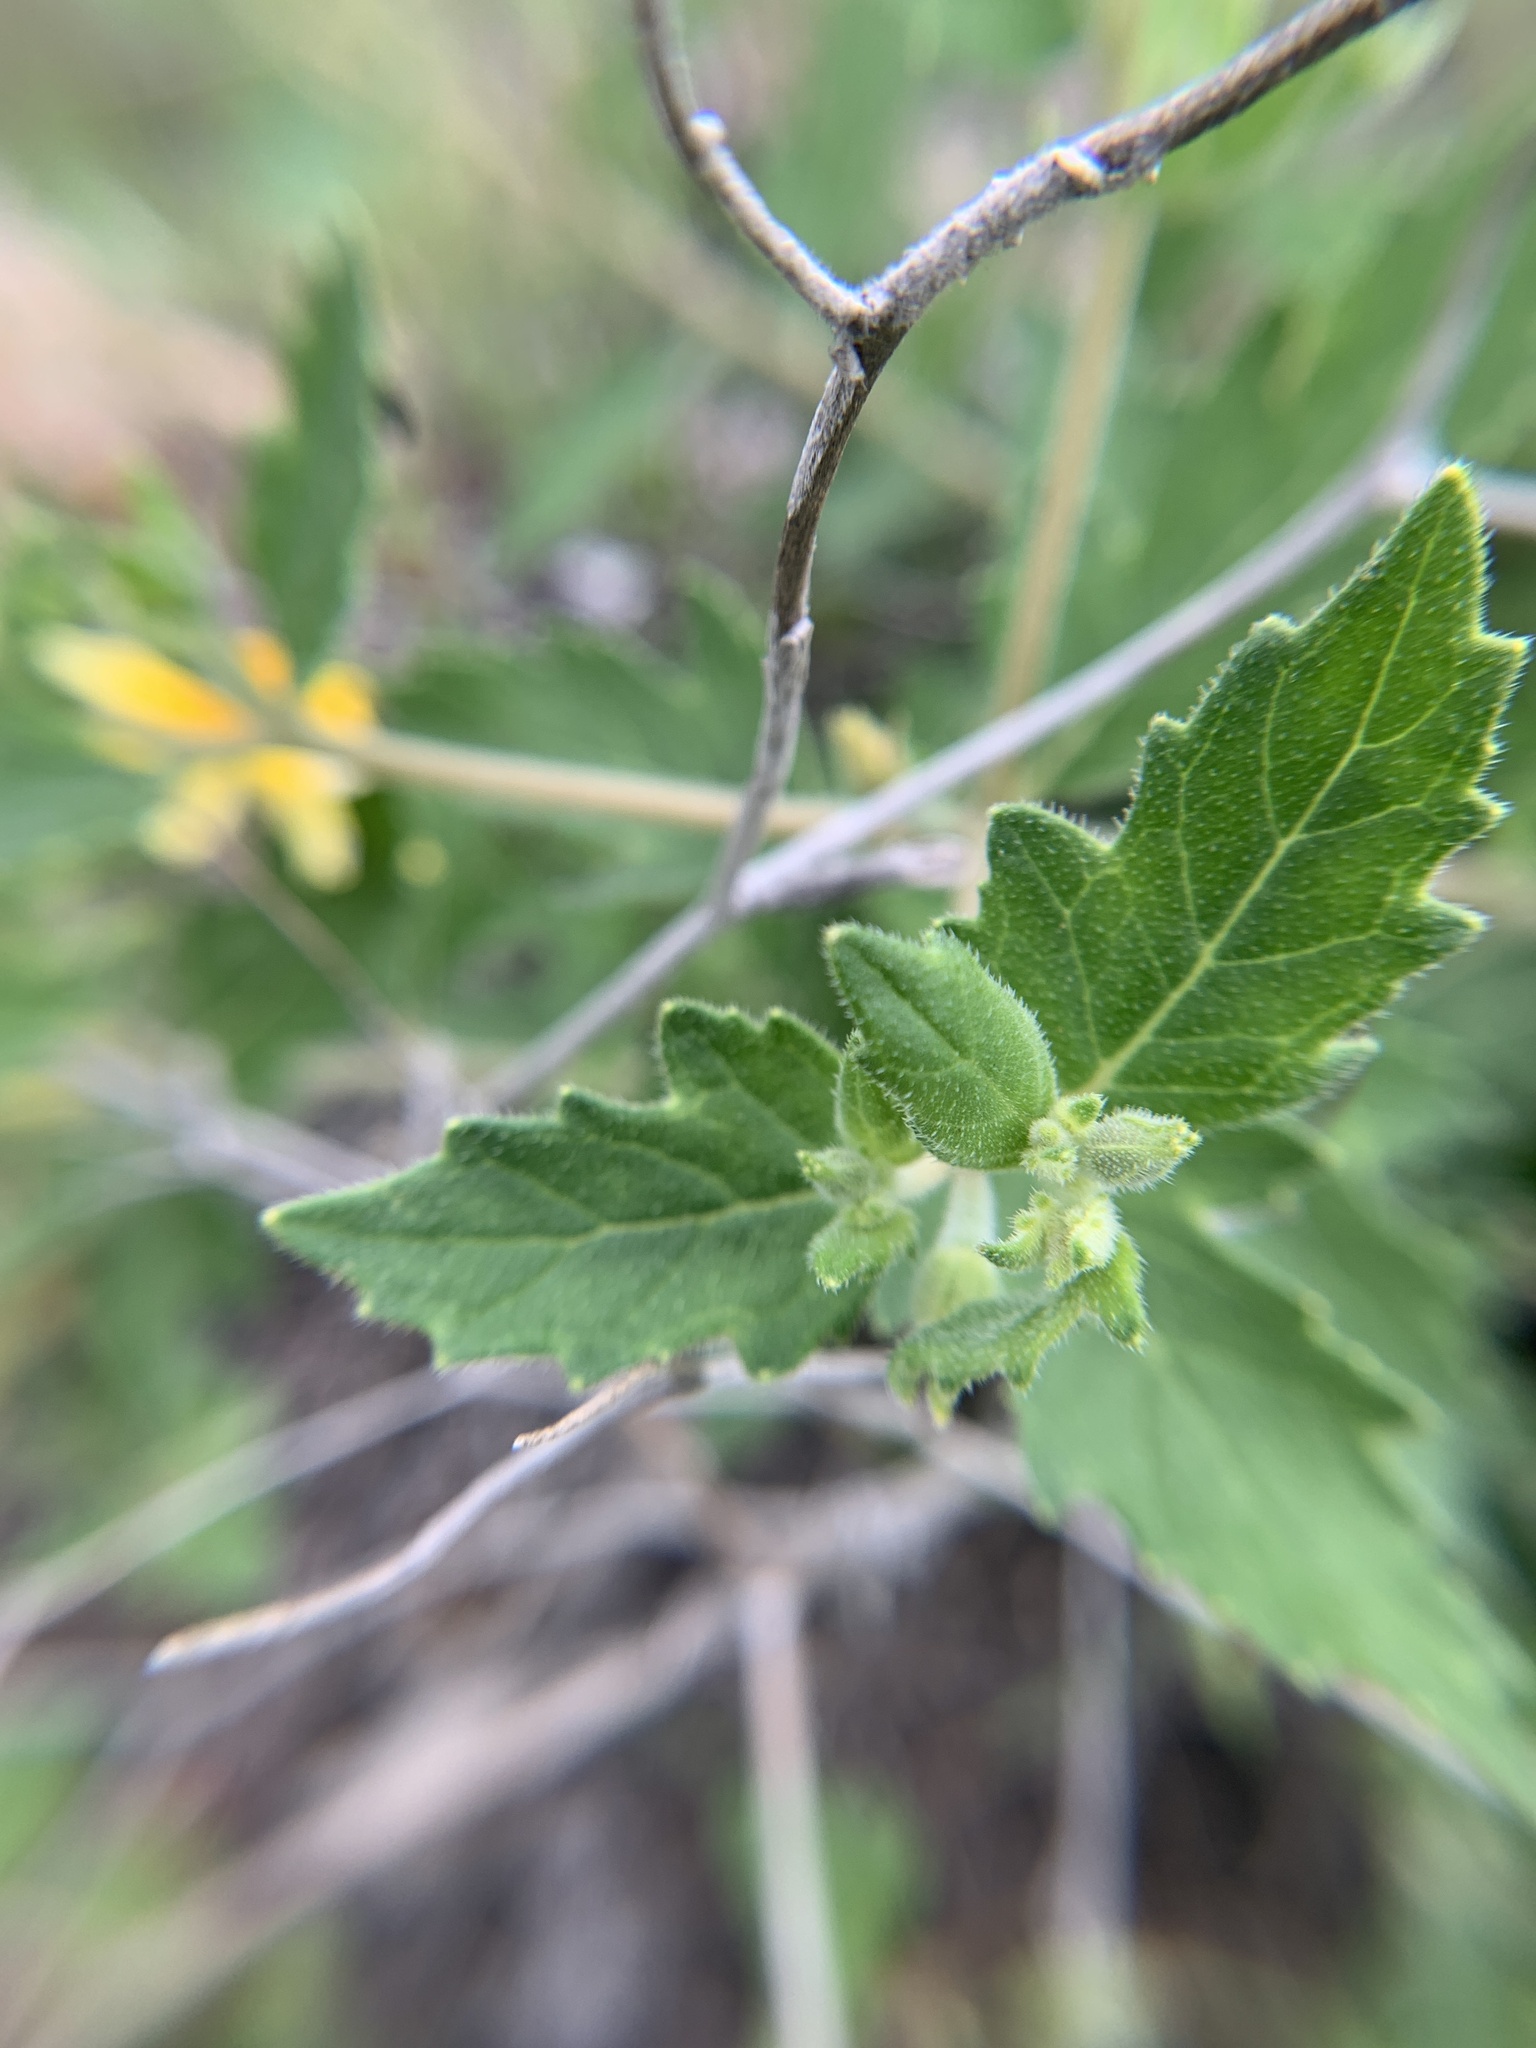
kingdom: Plantae
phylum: Tracheophyta
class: Magnoliopsida
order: Cornales
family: Loasaceae
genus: Mentzelia
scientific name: Mentzelia oligosperma
